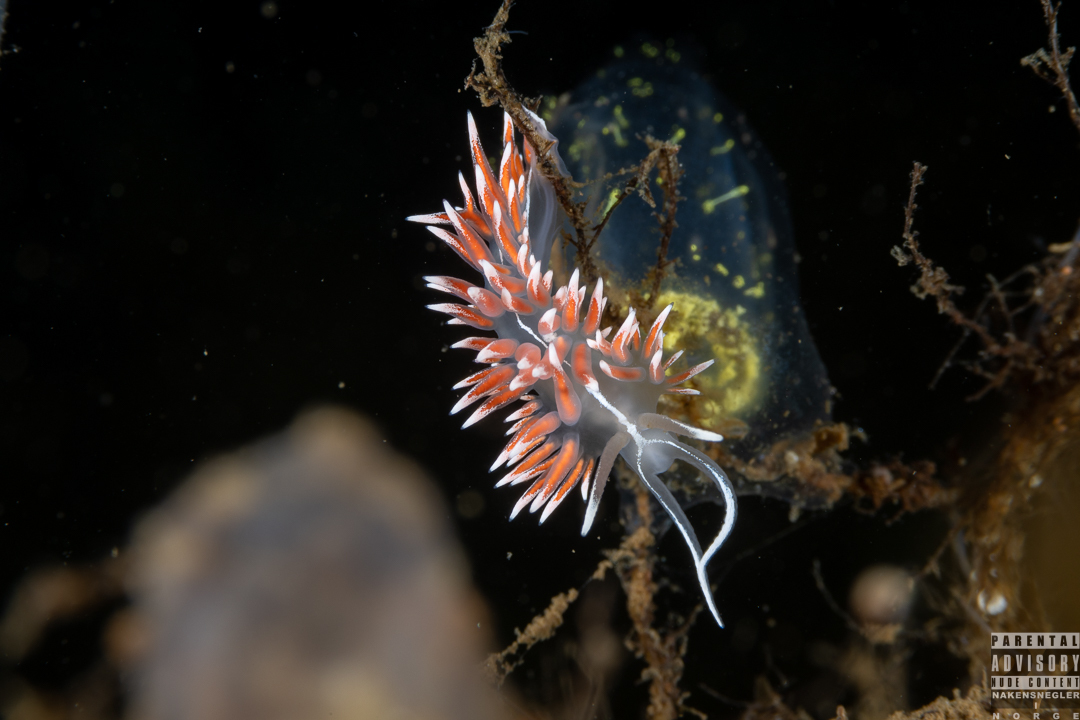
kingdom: Animalia
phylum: Mollusca
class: Gastropoda
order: Nudibranchia
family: Coryphellidae
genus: Coryphella
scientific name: Coryphella lineata
